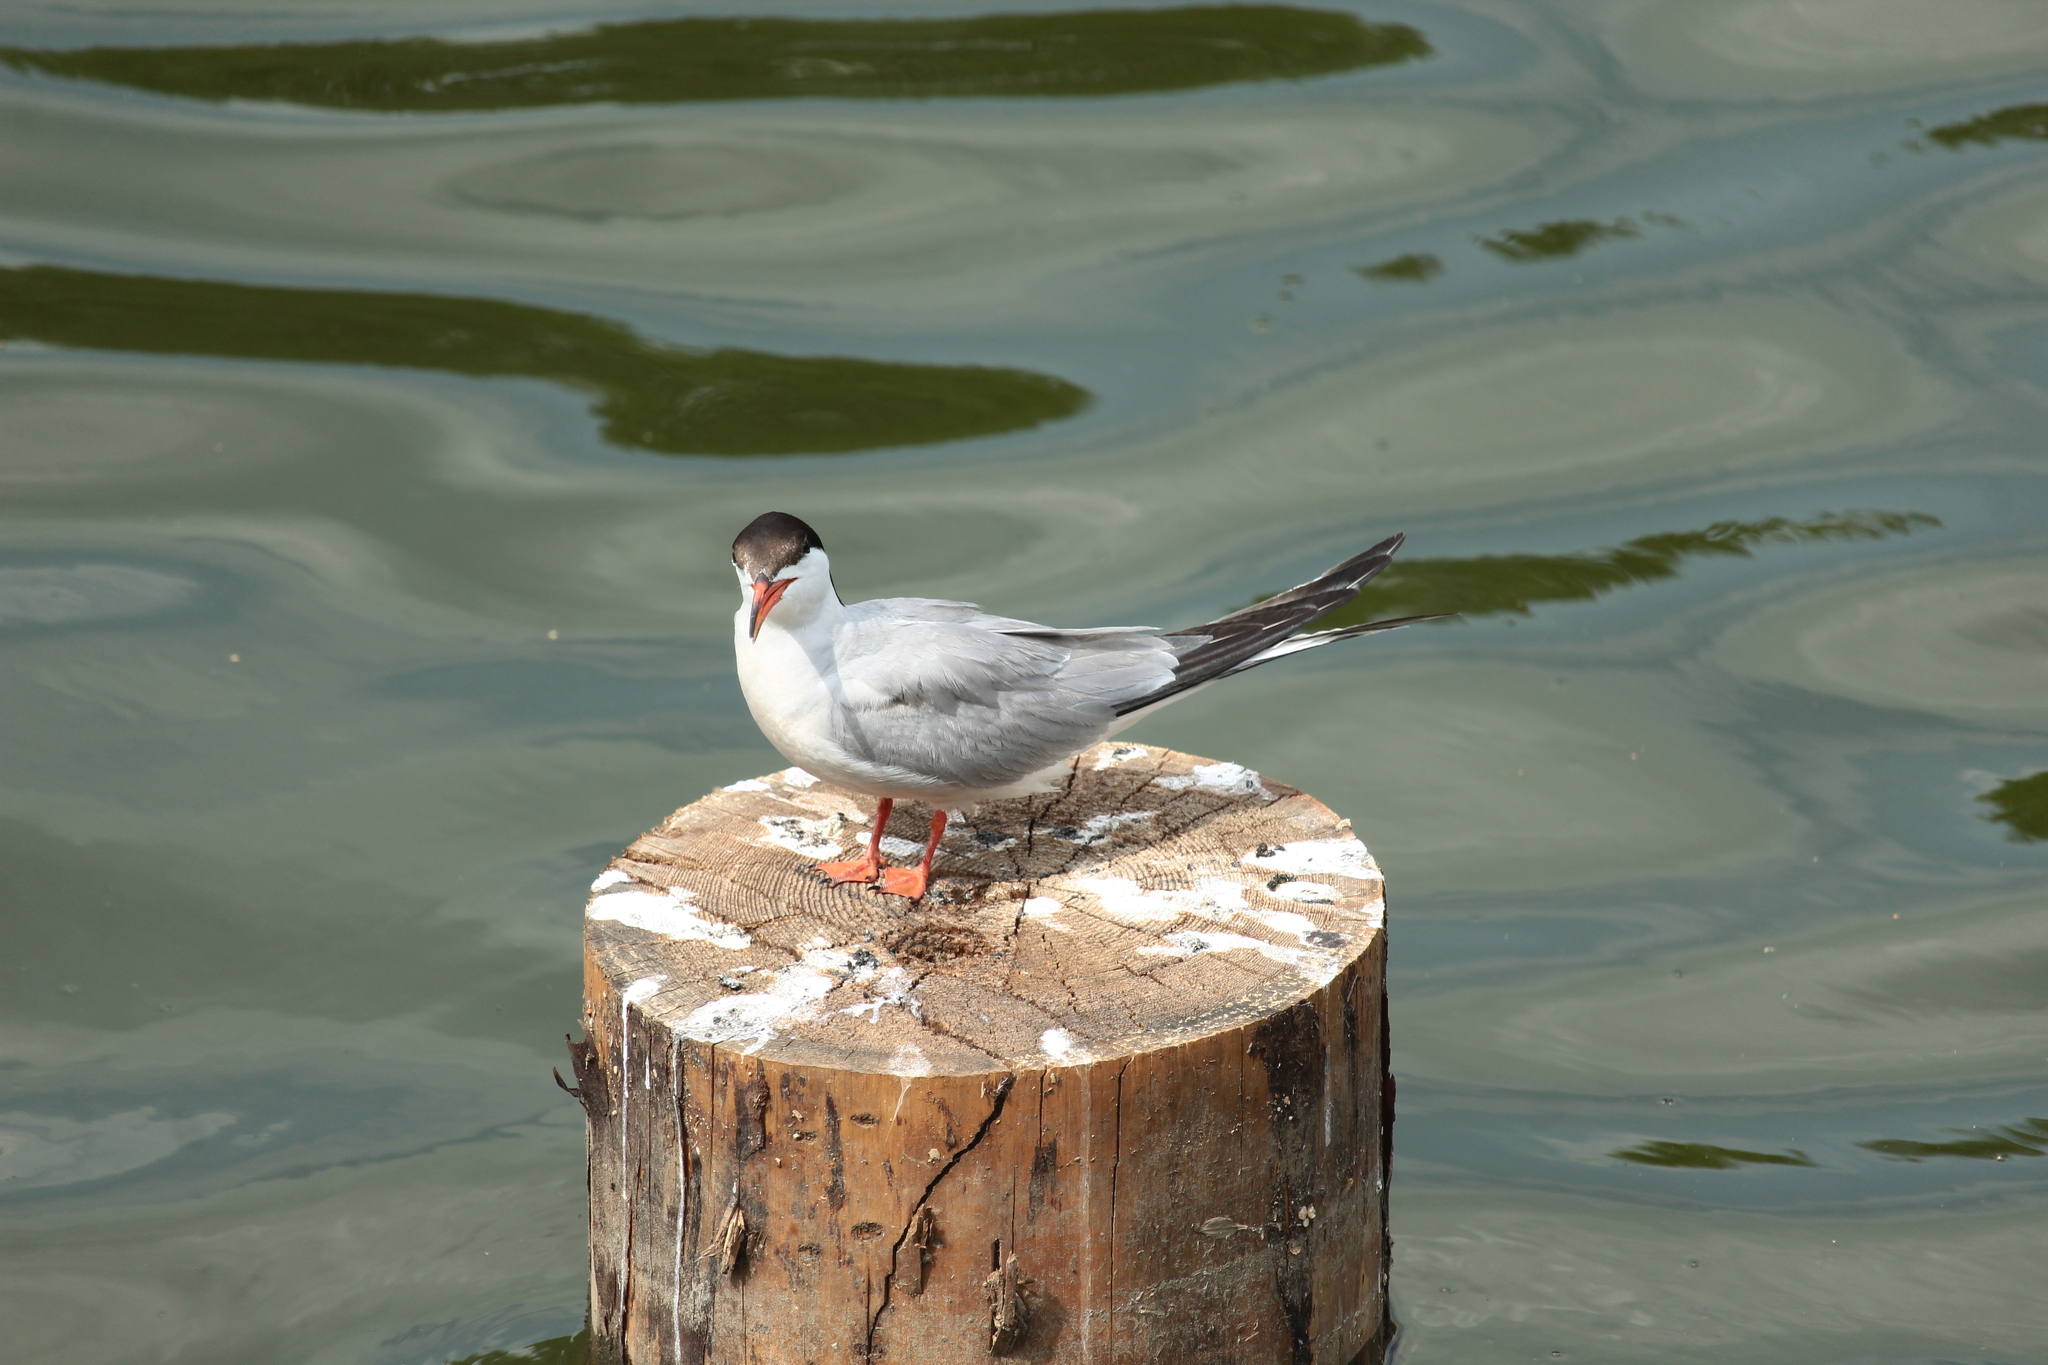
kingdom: Animalia
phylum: Chordata
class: Aves
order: Charadriiformes
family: Laridae
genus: Sterna
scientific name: Sterna hirundo
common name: Common tern
